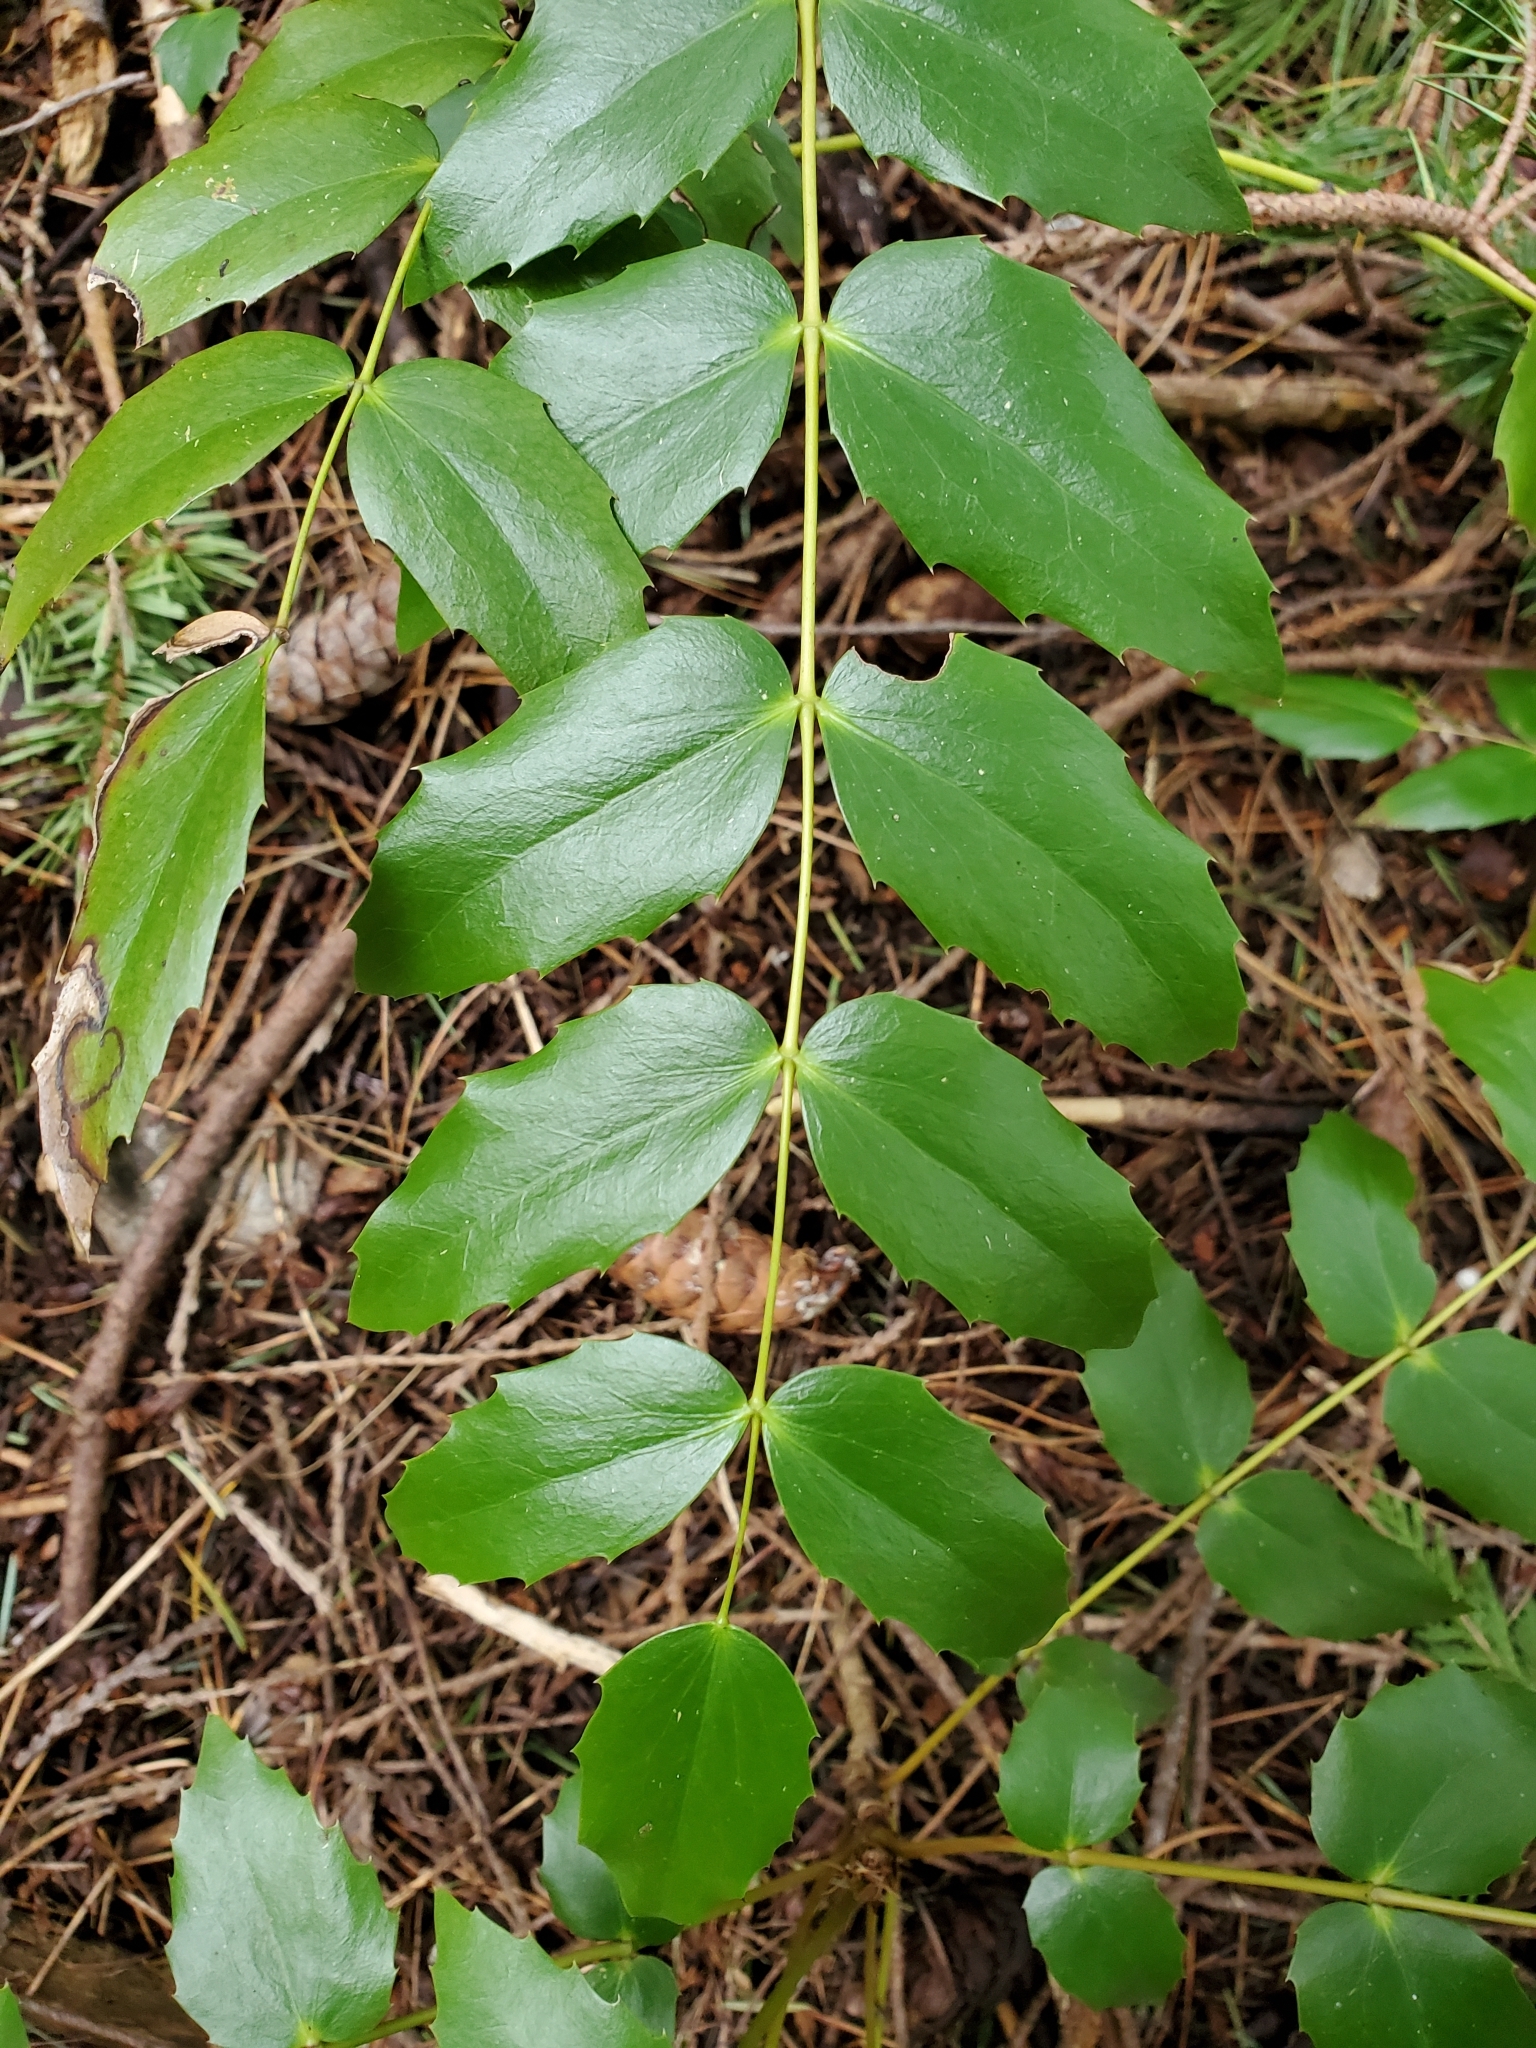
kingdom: Plantae
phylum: Tracheophyta
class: Magnoliopsida
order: Ranunculales
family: Berberidaceae
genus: Mahonia
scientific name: Mahonia nervosa
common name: Cascade oregon-grape
